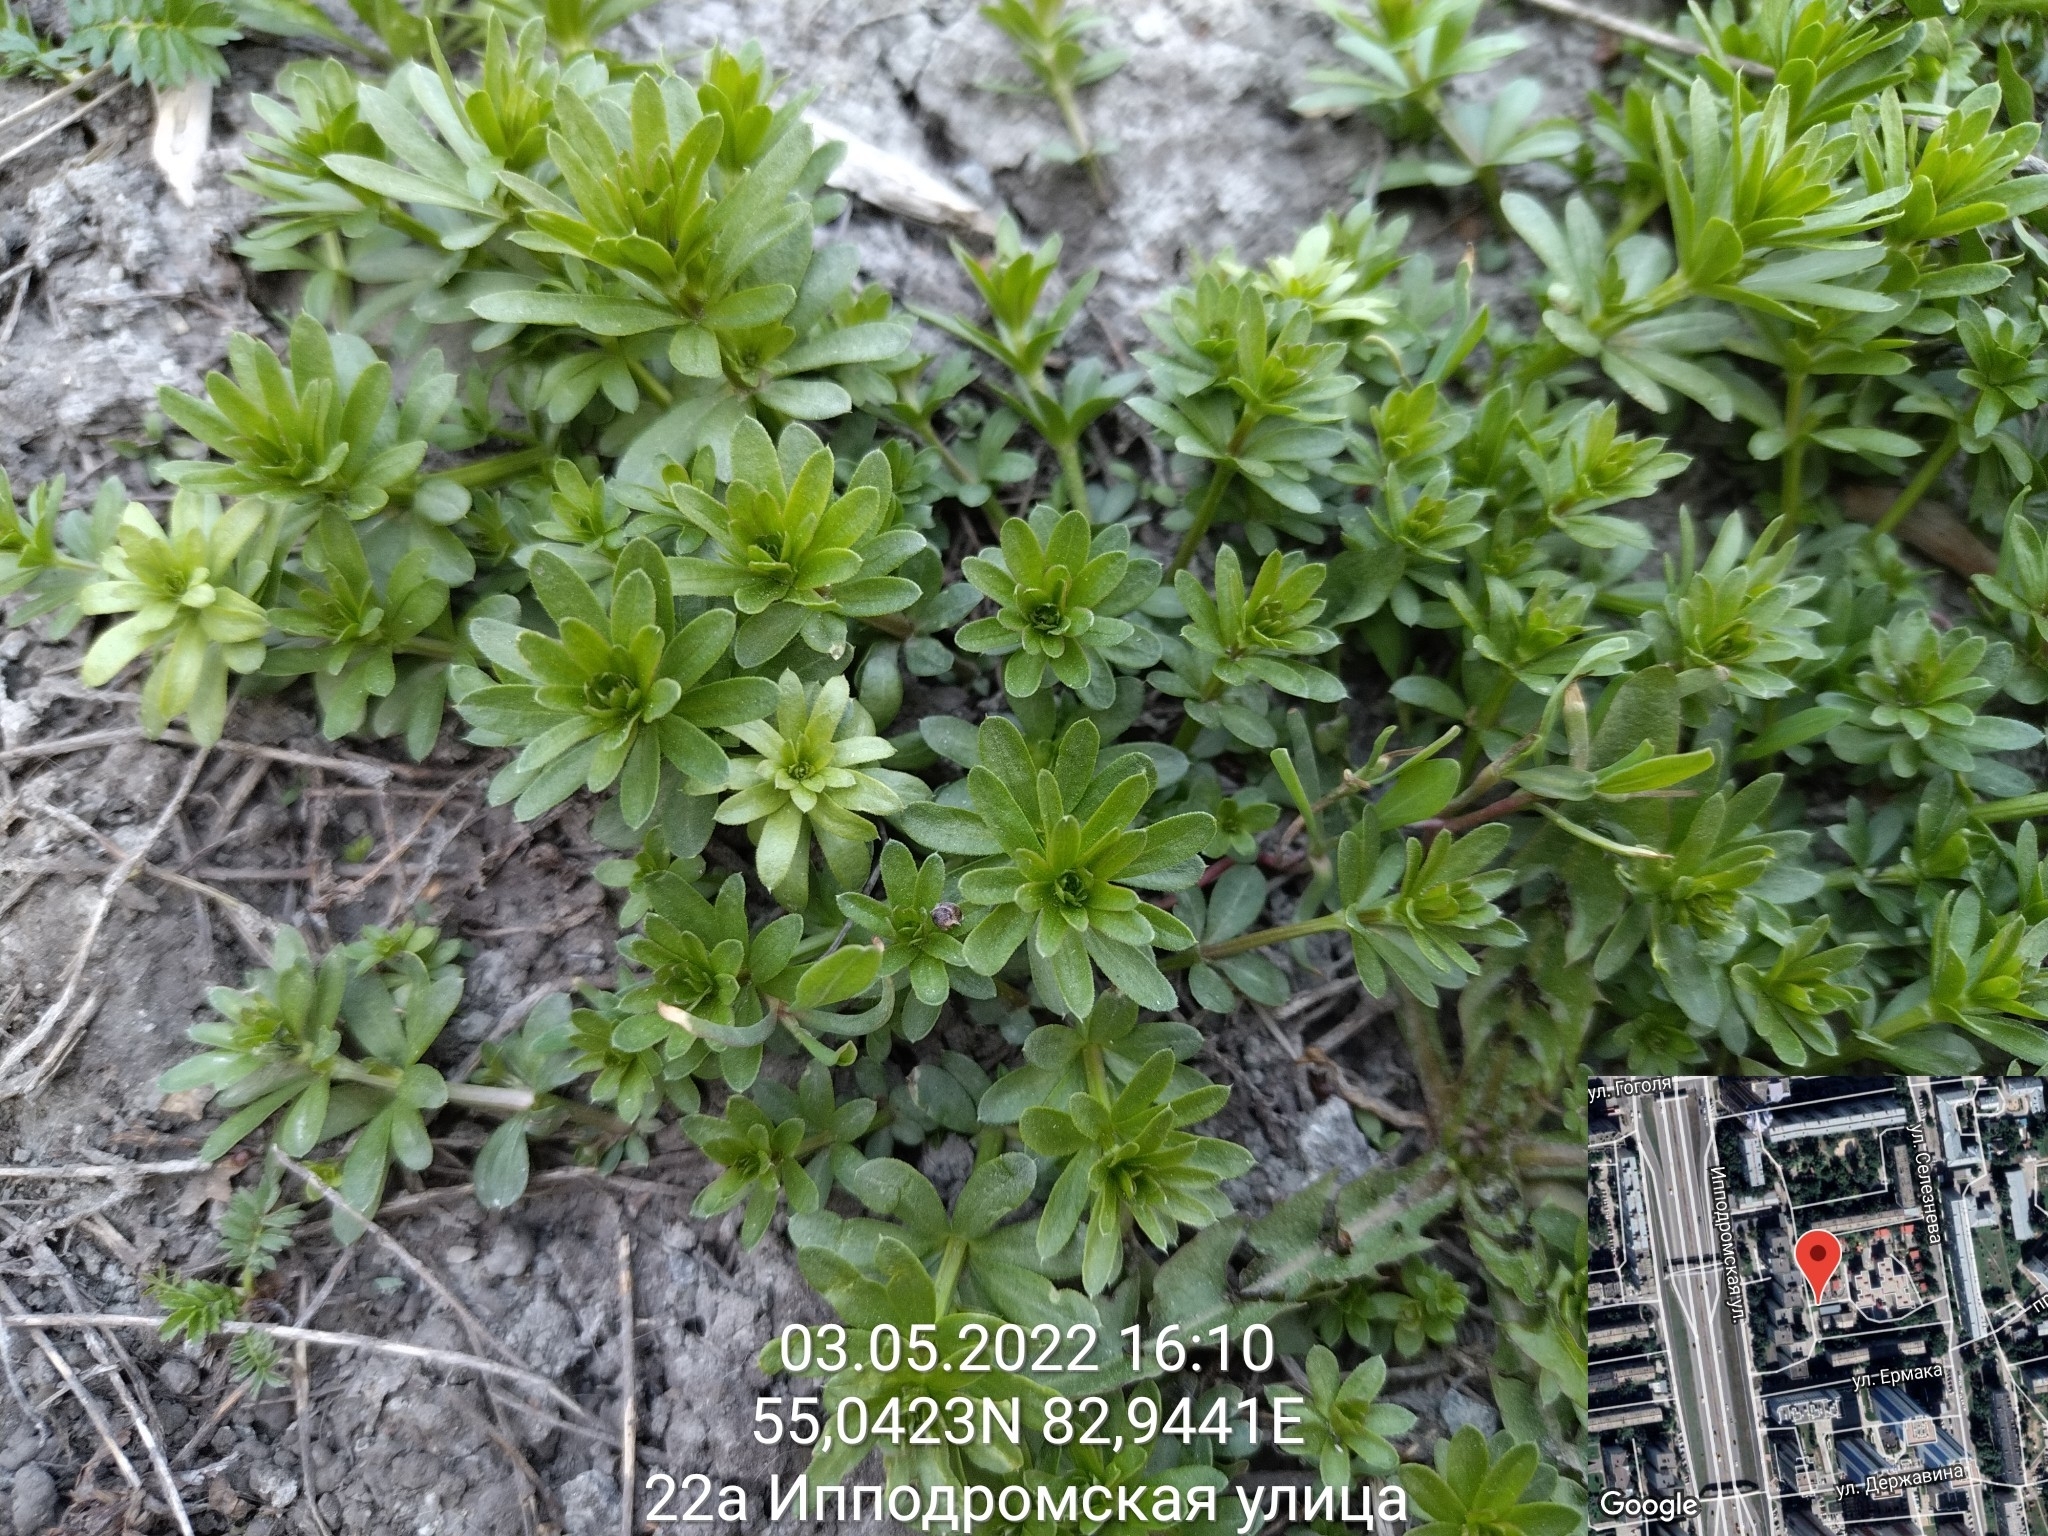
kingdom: Plantae
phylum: Tracheophyta
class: Magnoliopsida
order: Gentianales
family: Rubiaceae
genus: Galium
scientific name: Galium mollugo
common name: Hedge bedstraw
